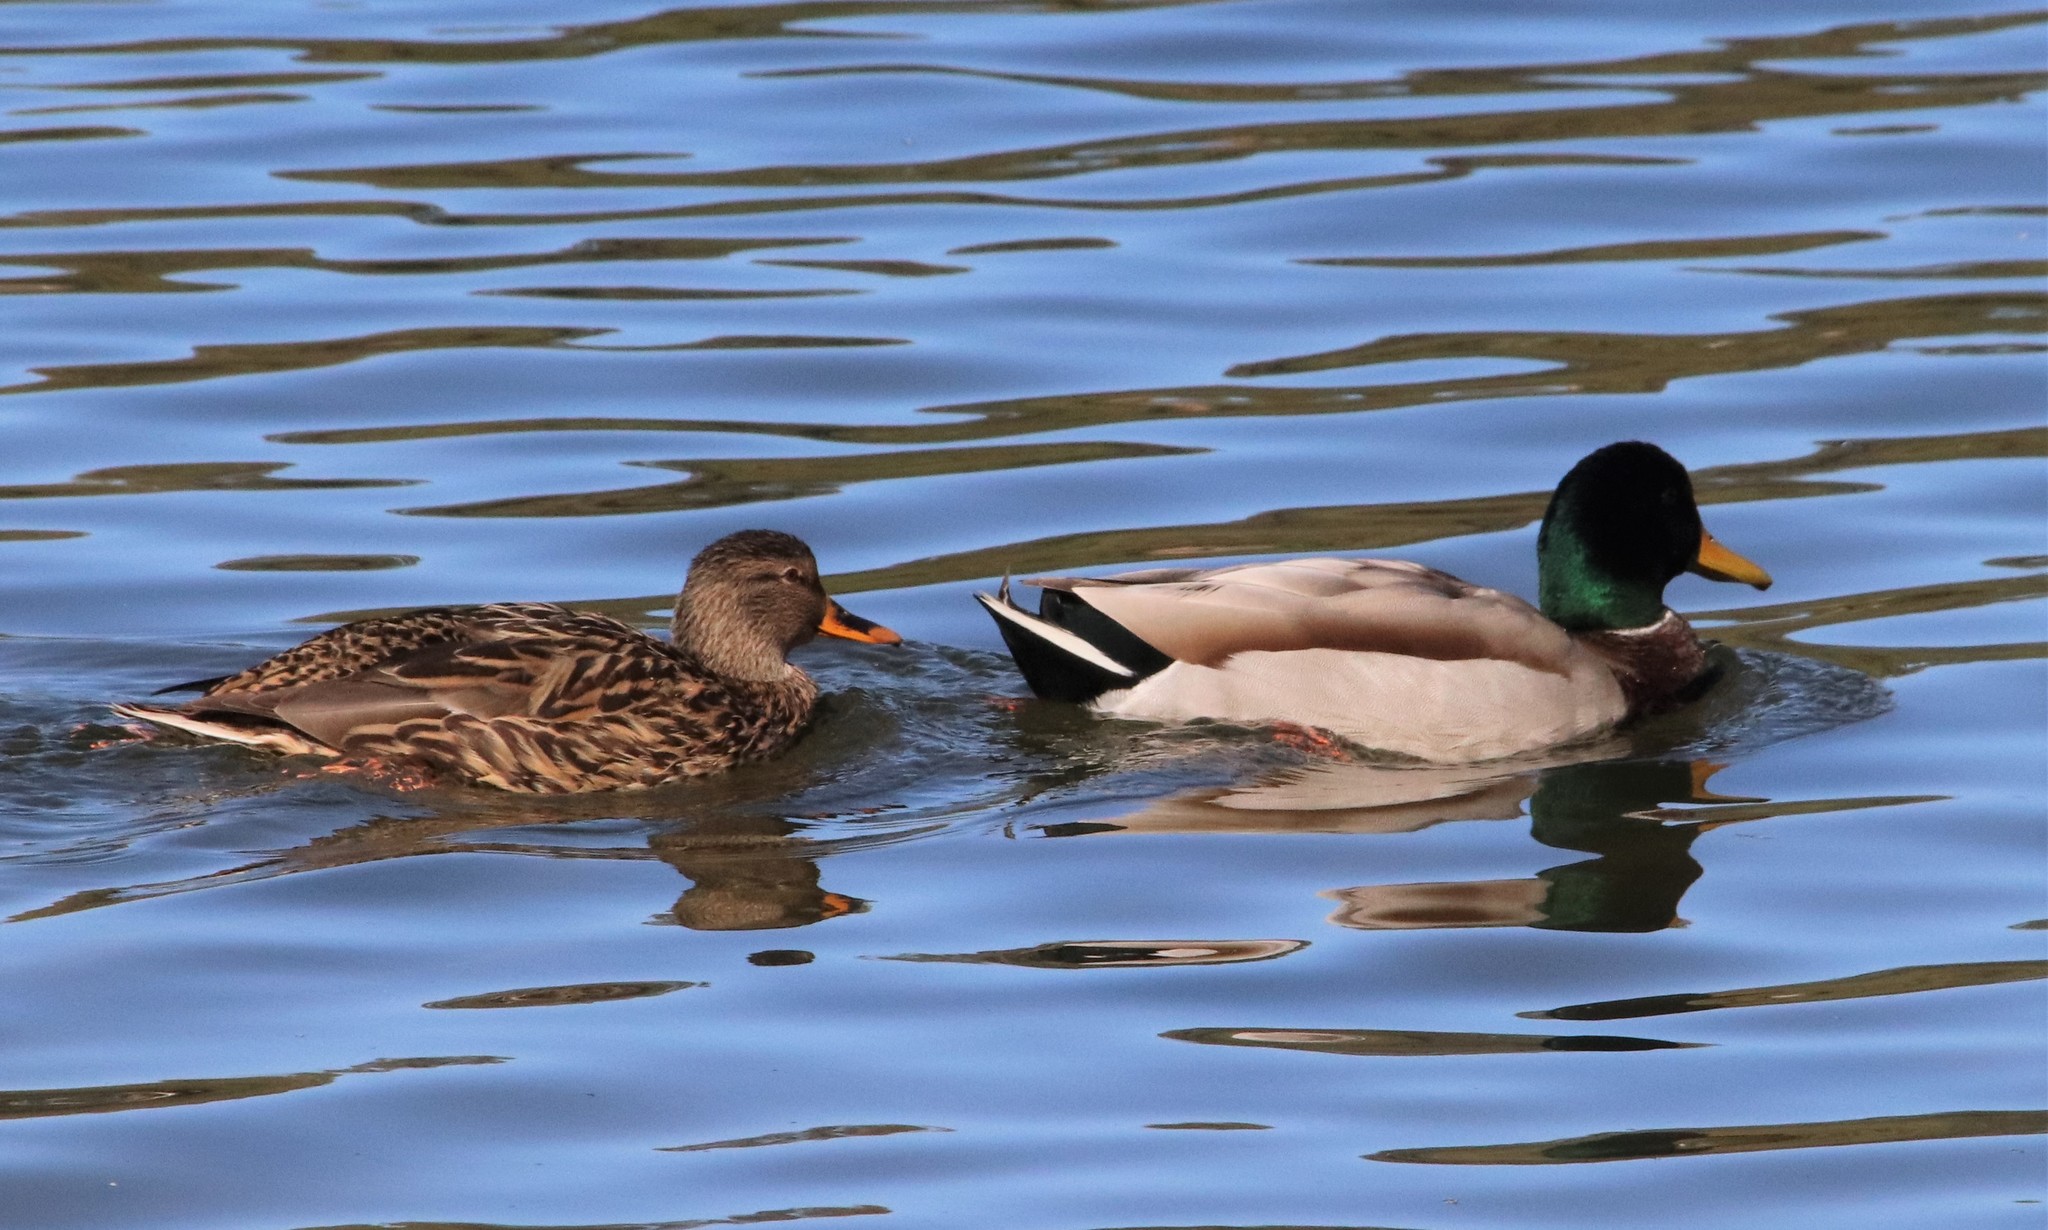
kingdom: Animalia
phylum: Chordata
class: Aves
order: Anseriformes
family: Anatidae
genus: Anas
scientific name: Anas platyrhynchos
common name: Mallard
